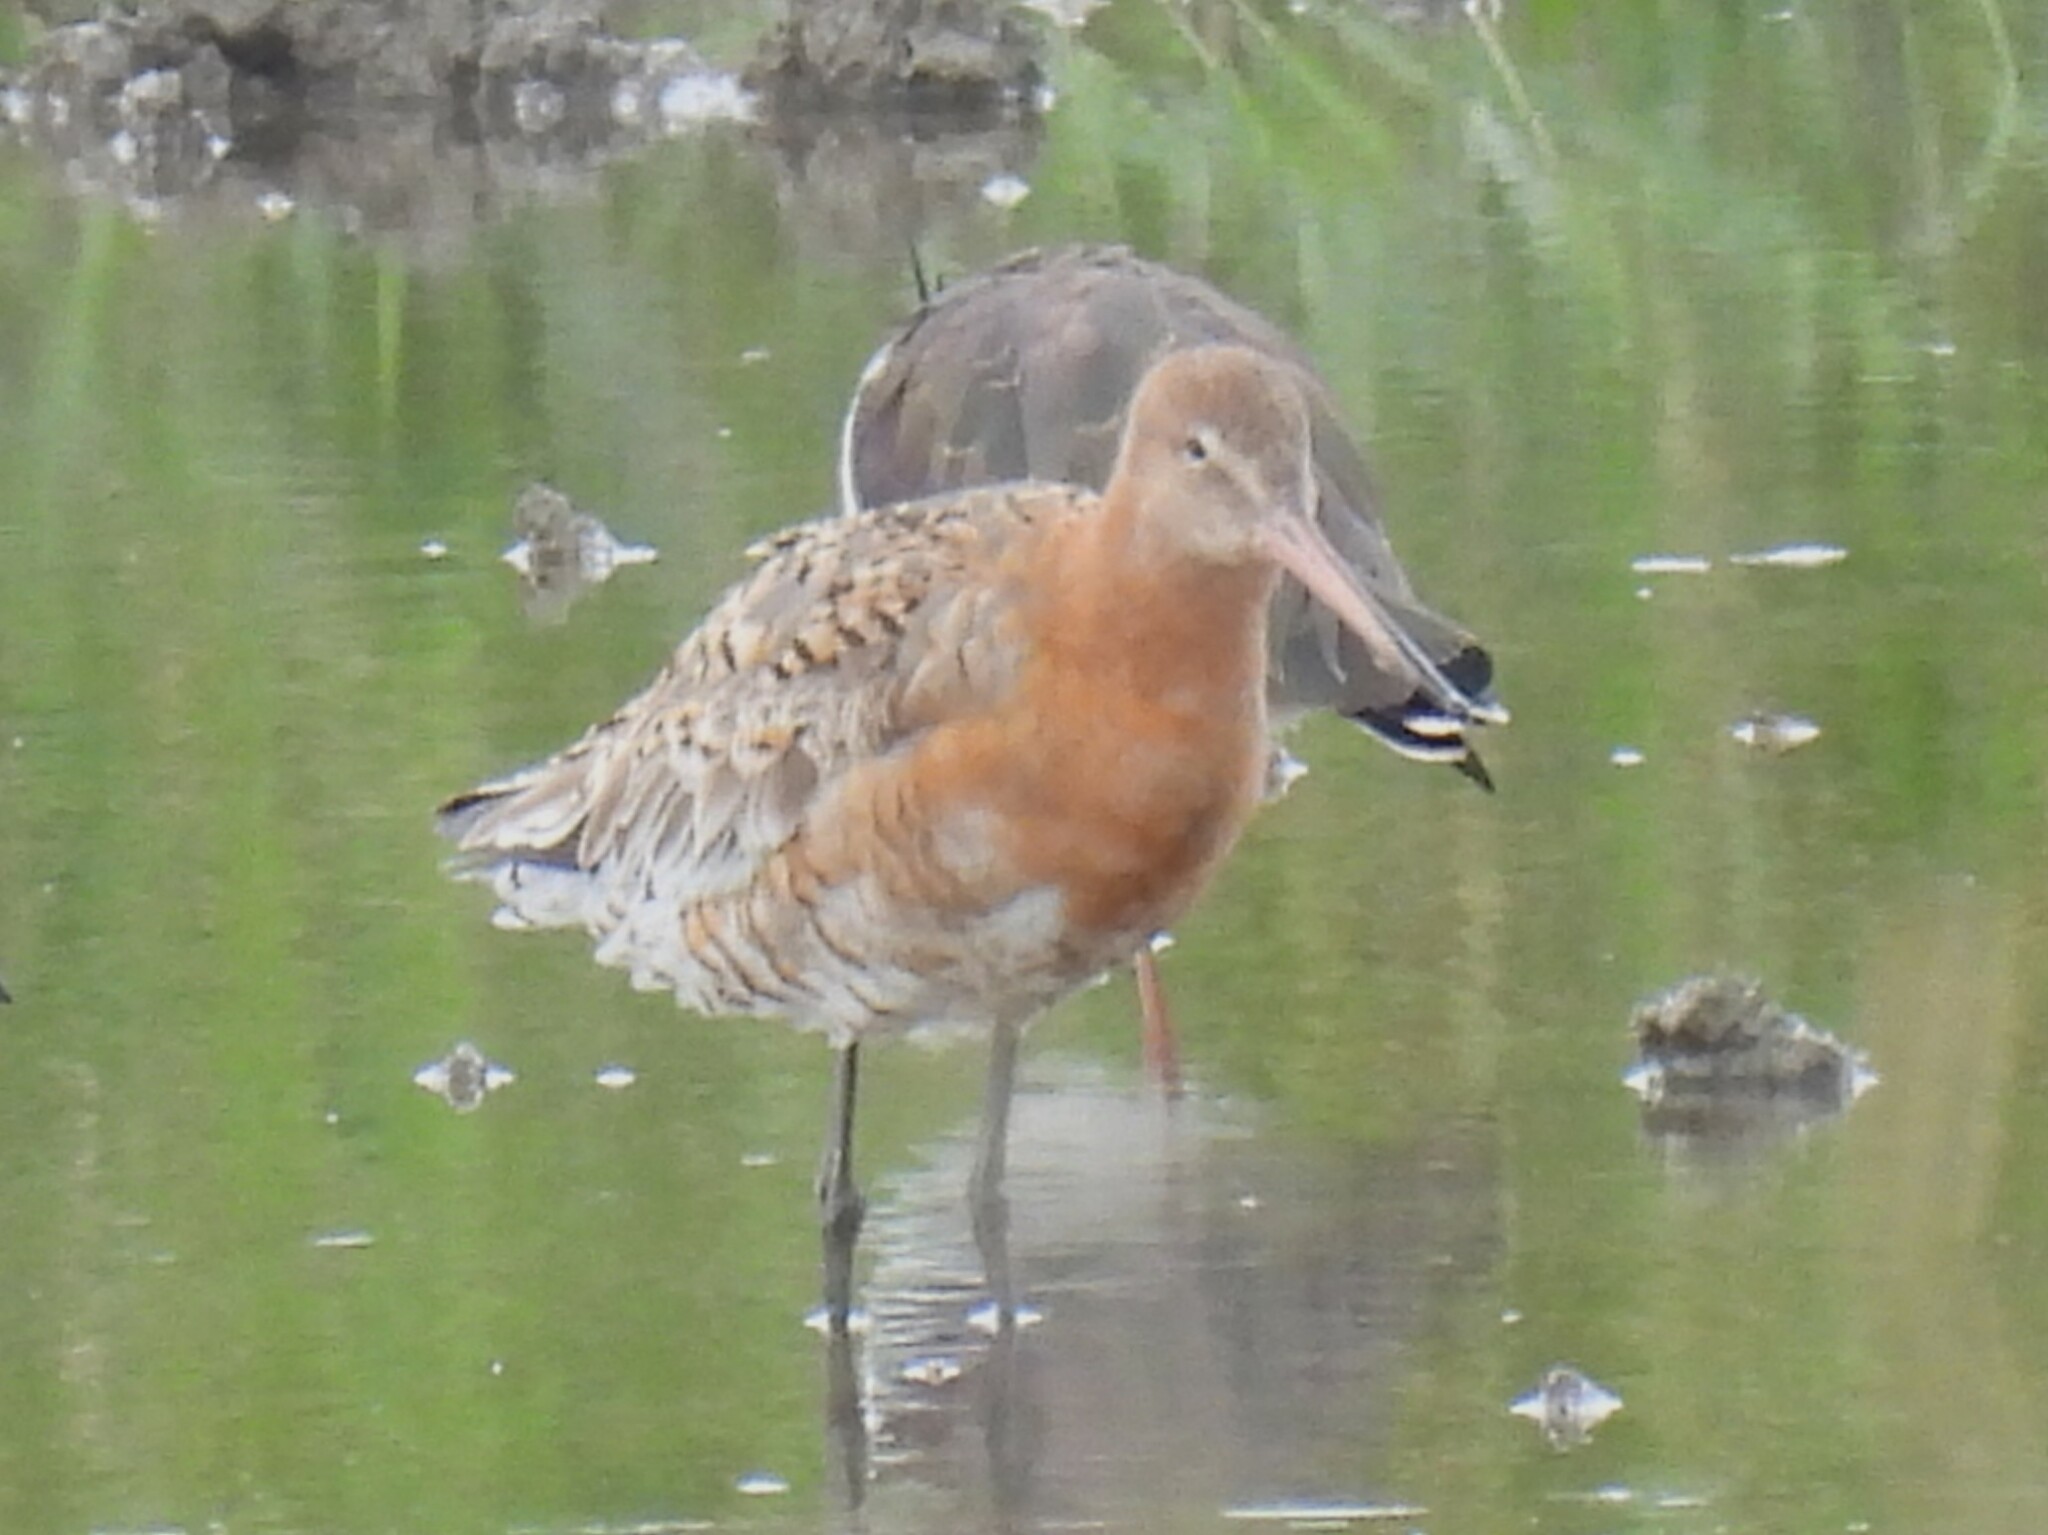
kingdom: Animalia
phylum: Chordata
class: Aves
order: Charadriiformes
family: Scolopacidae
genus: Limosa
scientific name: Limosa limosa
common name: Black-tailed godwit
